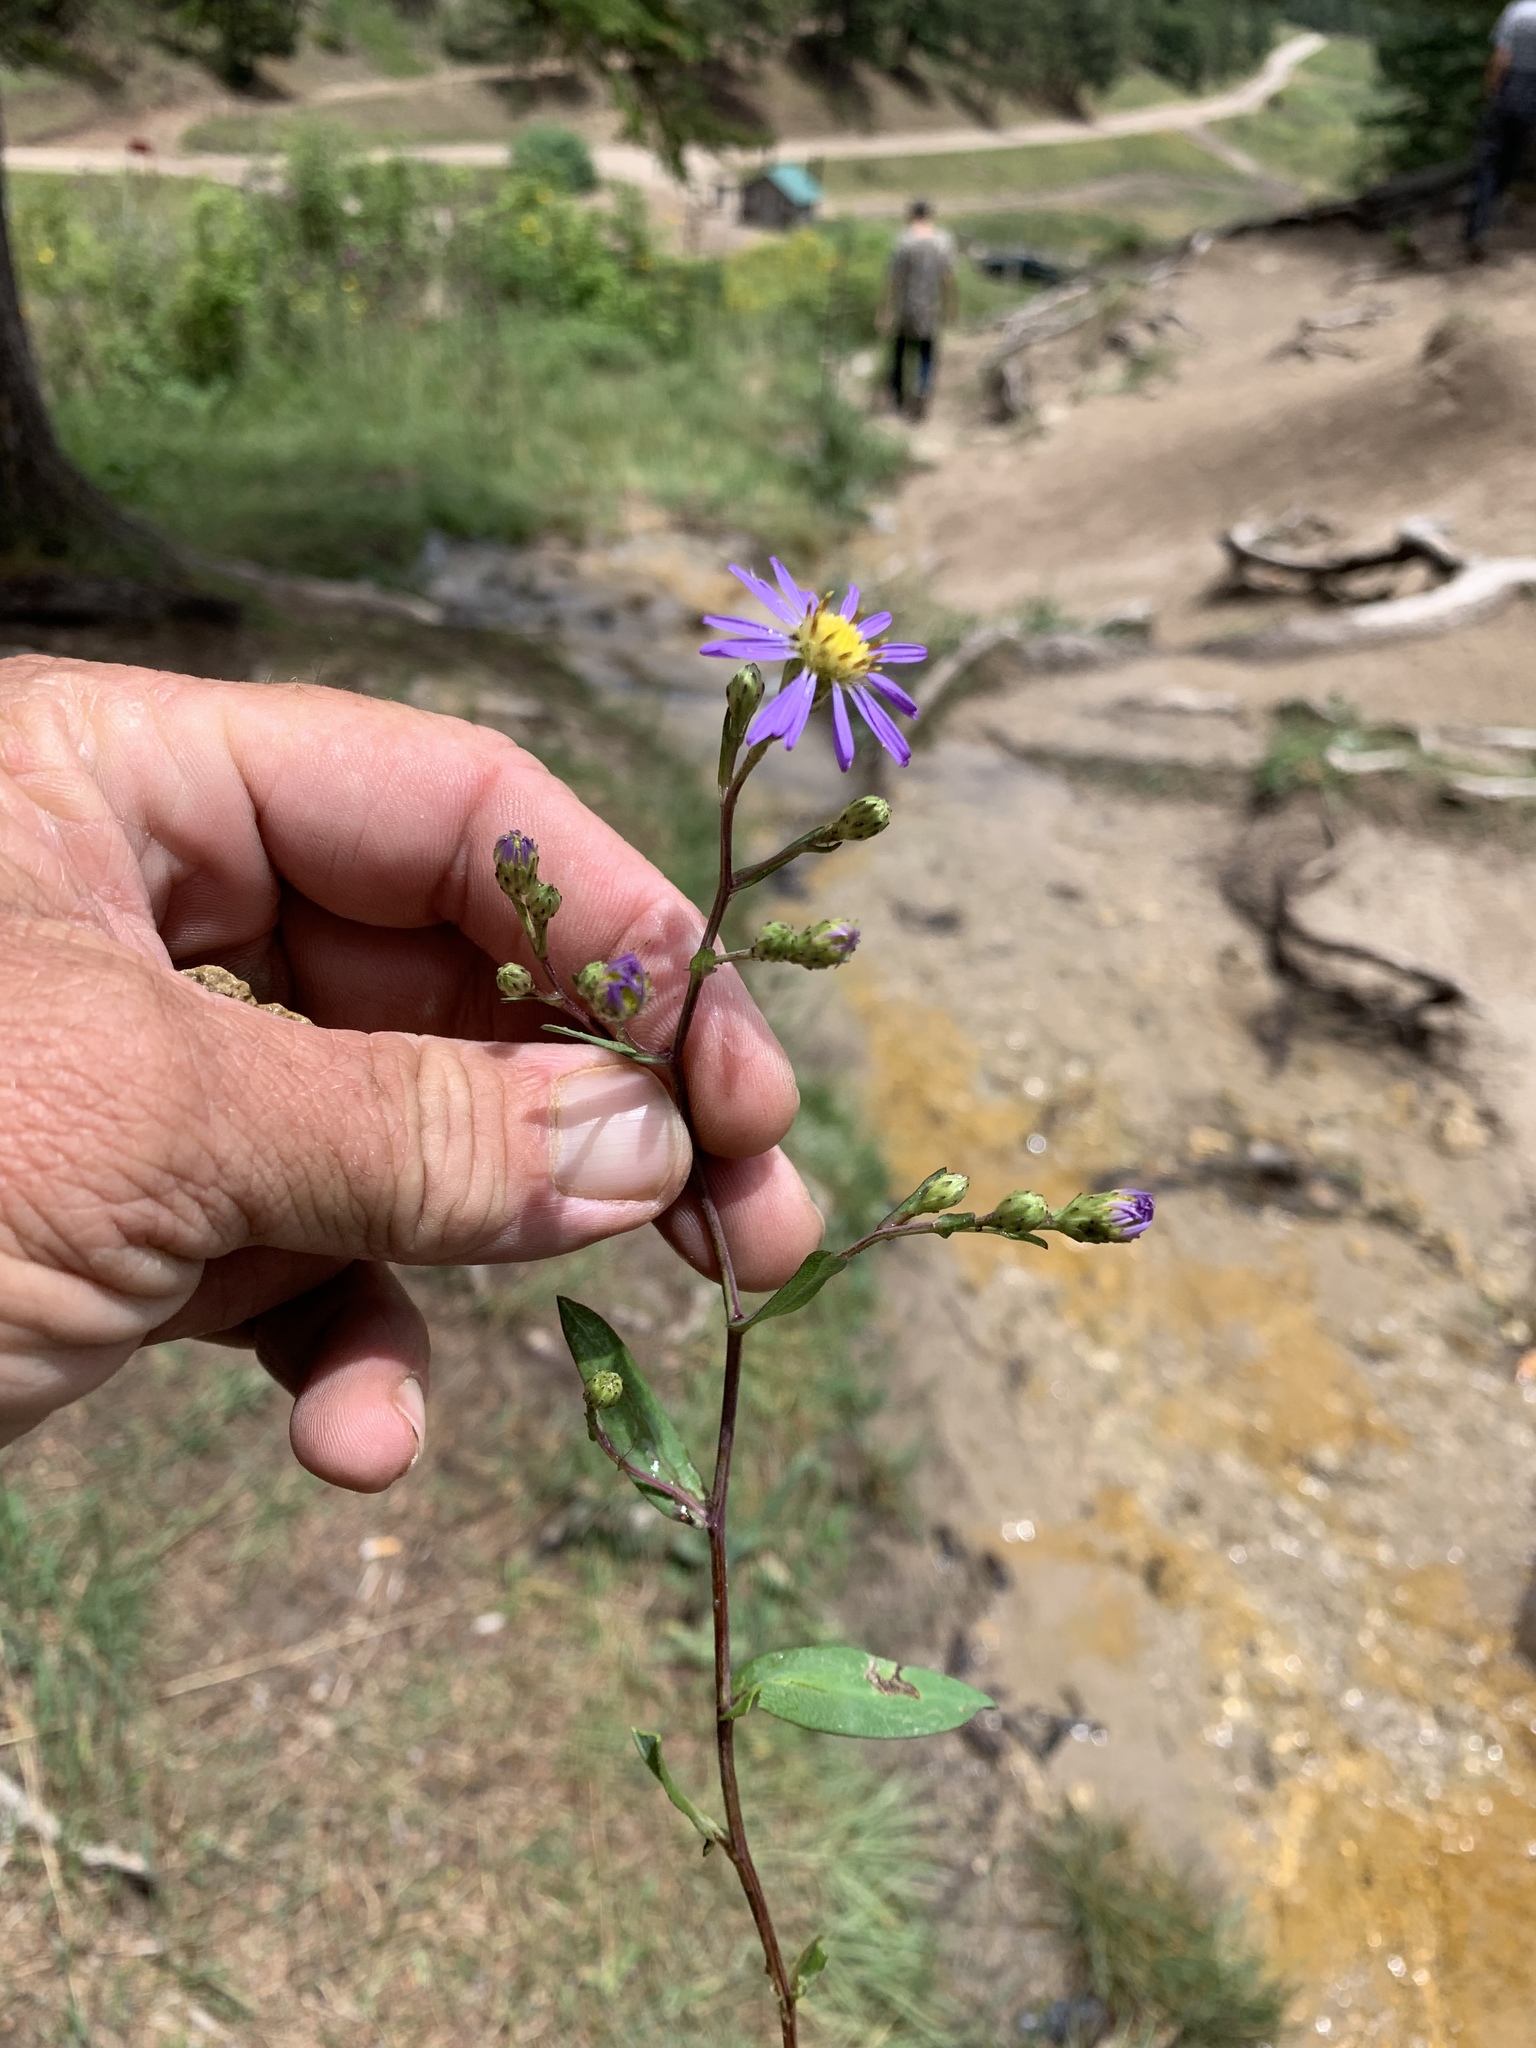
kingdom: Plantae
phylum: Tracheophyta
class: Magnoliopsida
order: Asterales
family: Asteraceae
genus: Symphyotrichum
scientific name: Symphyotrichum laeve
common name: Glaucous aster
